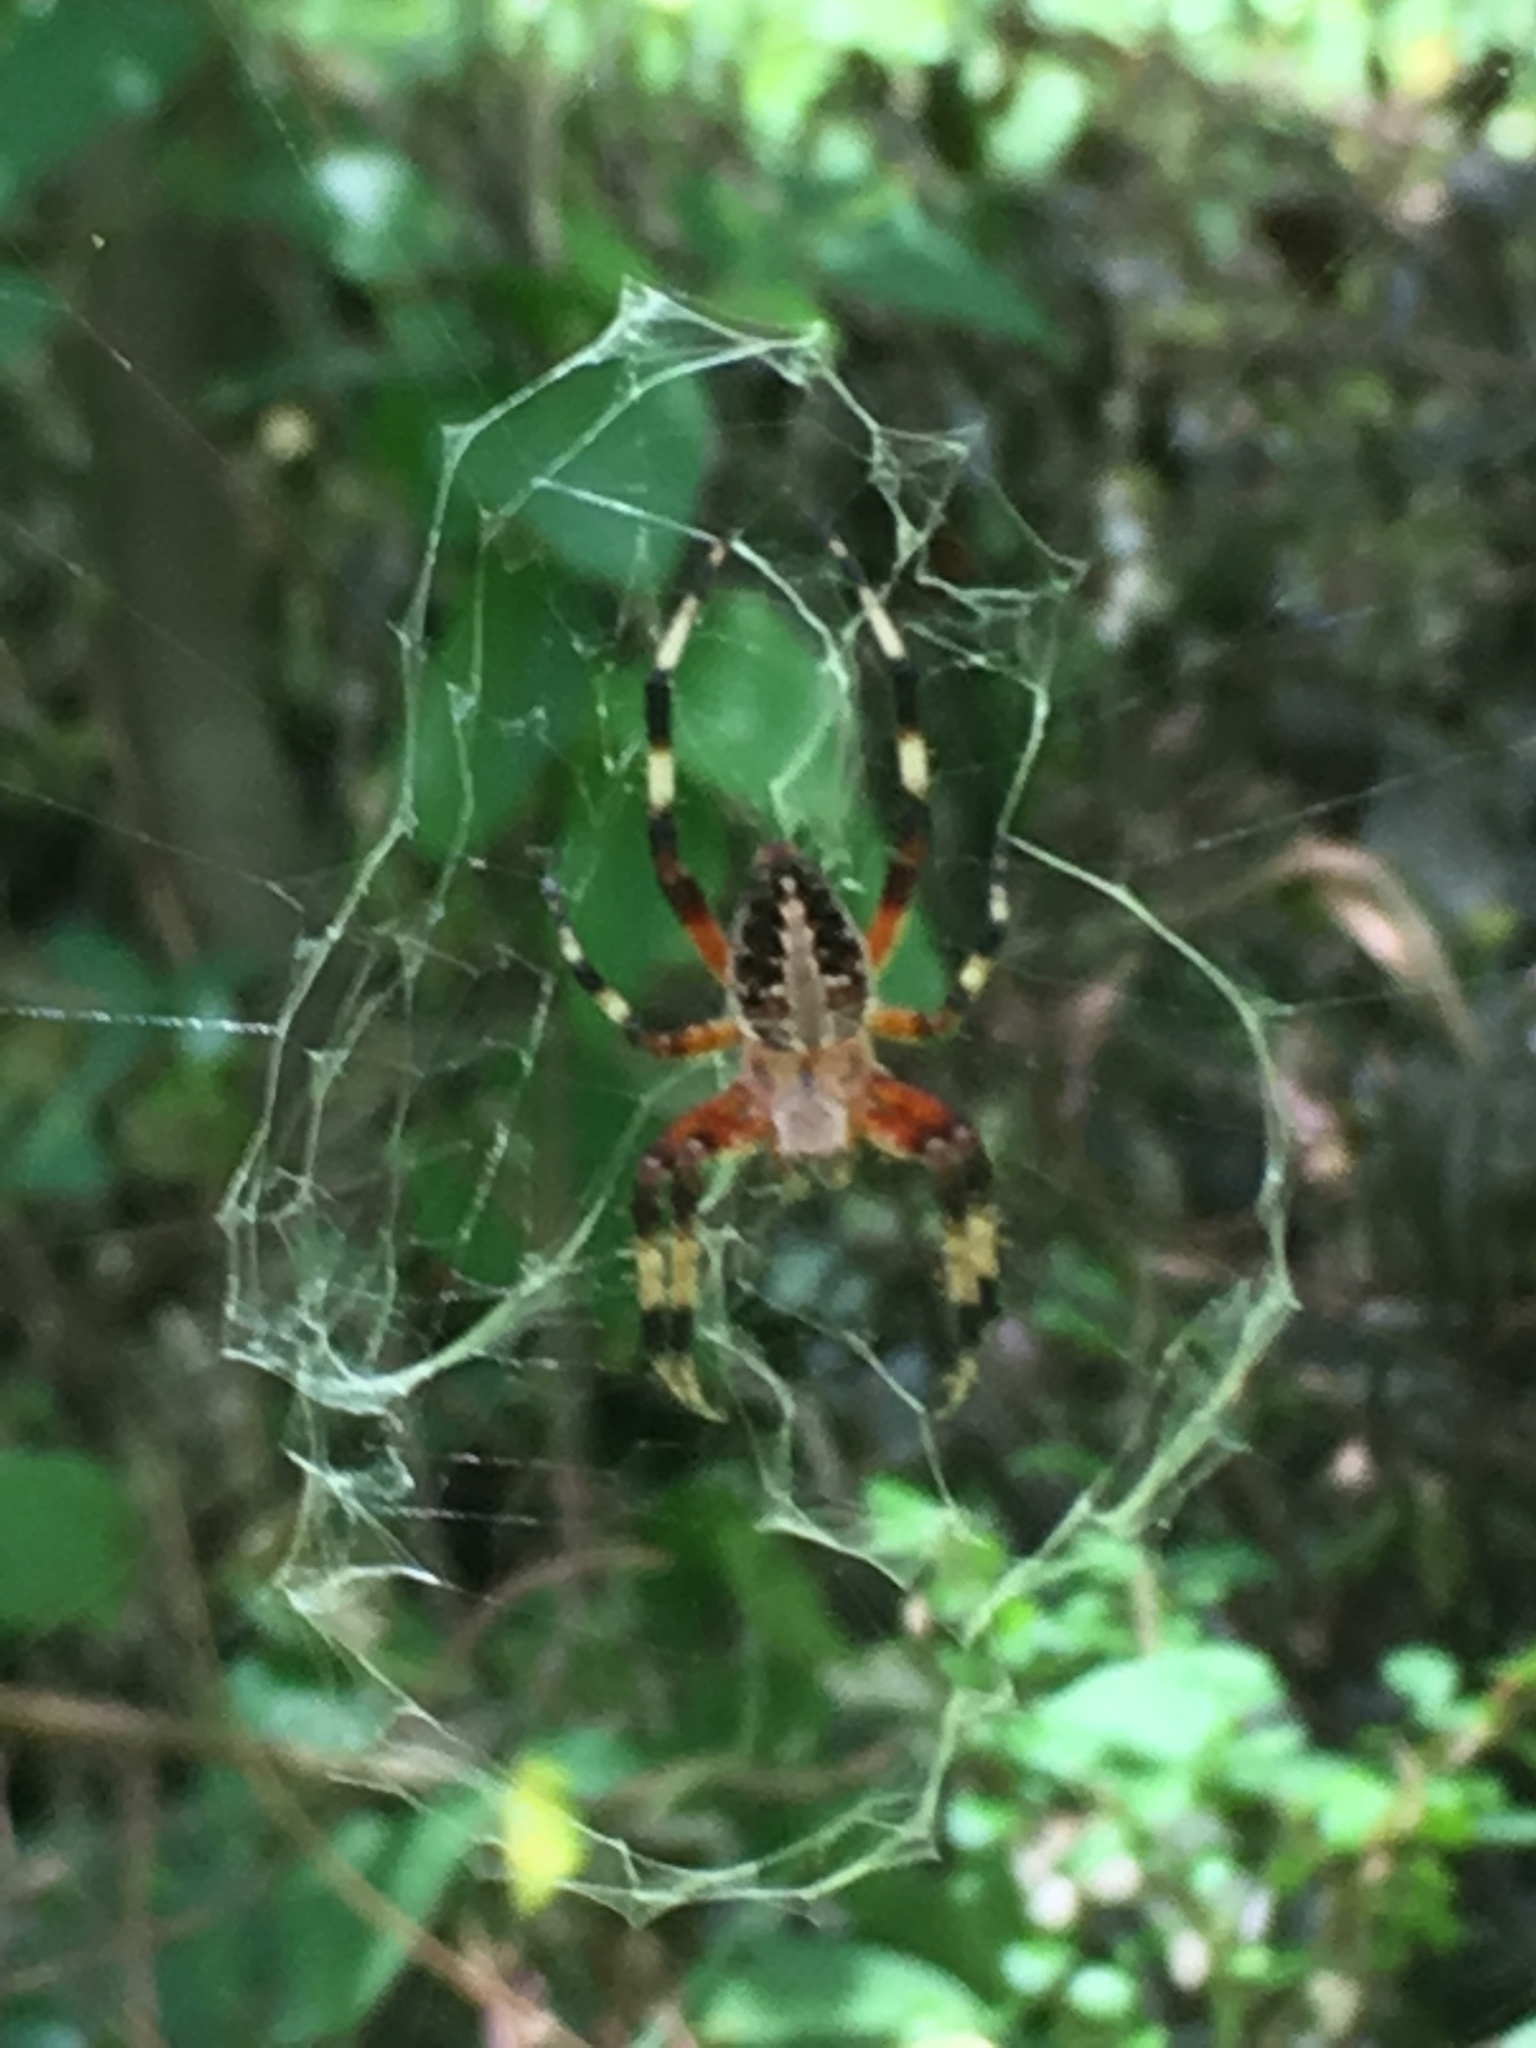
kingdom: Animalia
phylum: Arthropoda
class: Arachnida
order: Araneae
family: Araneidae
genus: Neoscona
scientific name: Neoscona domiciliorum
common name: Red-femured spotted orbweaver
